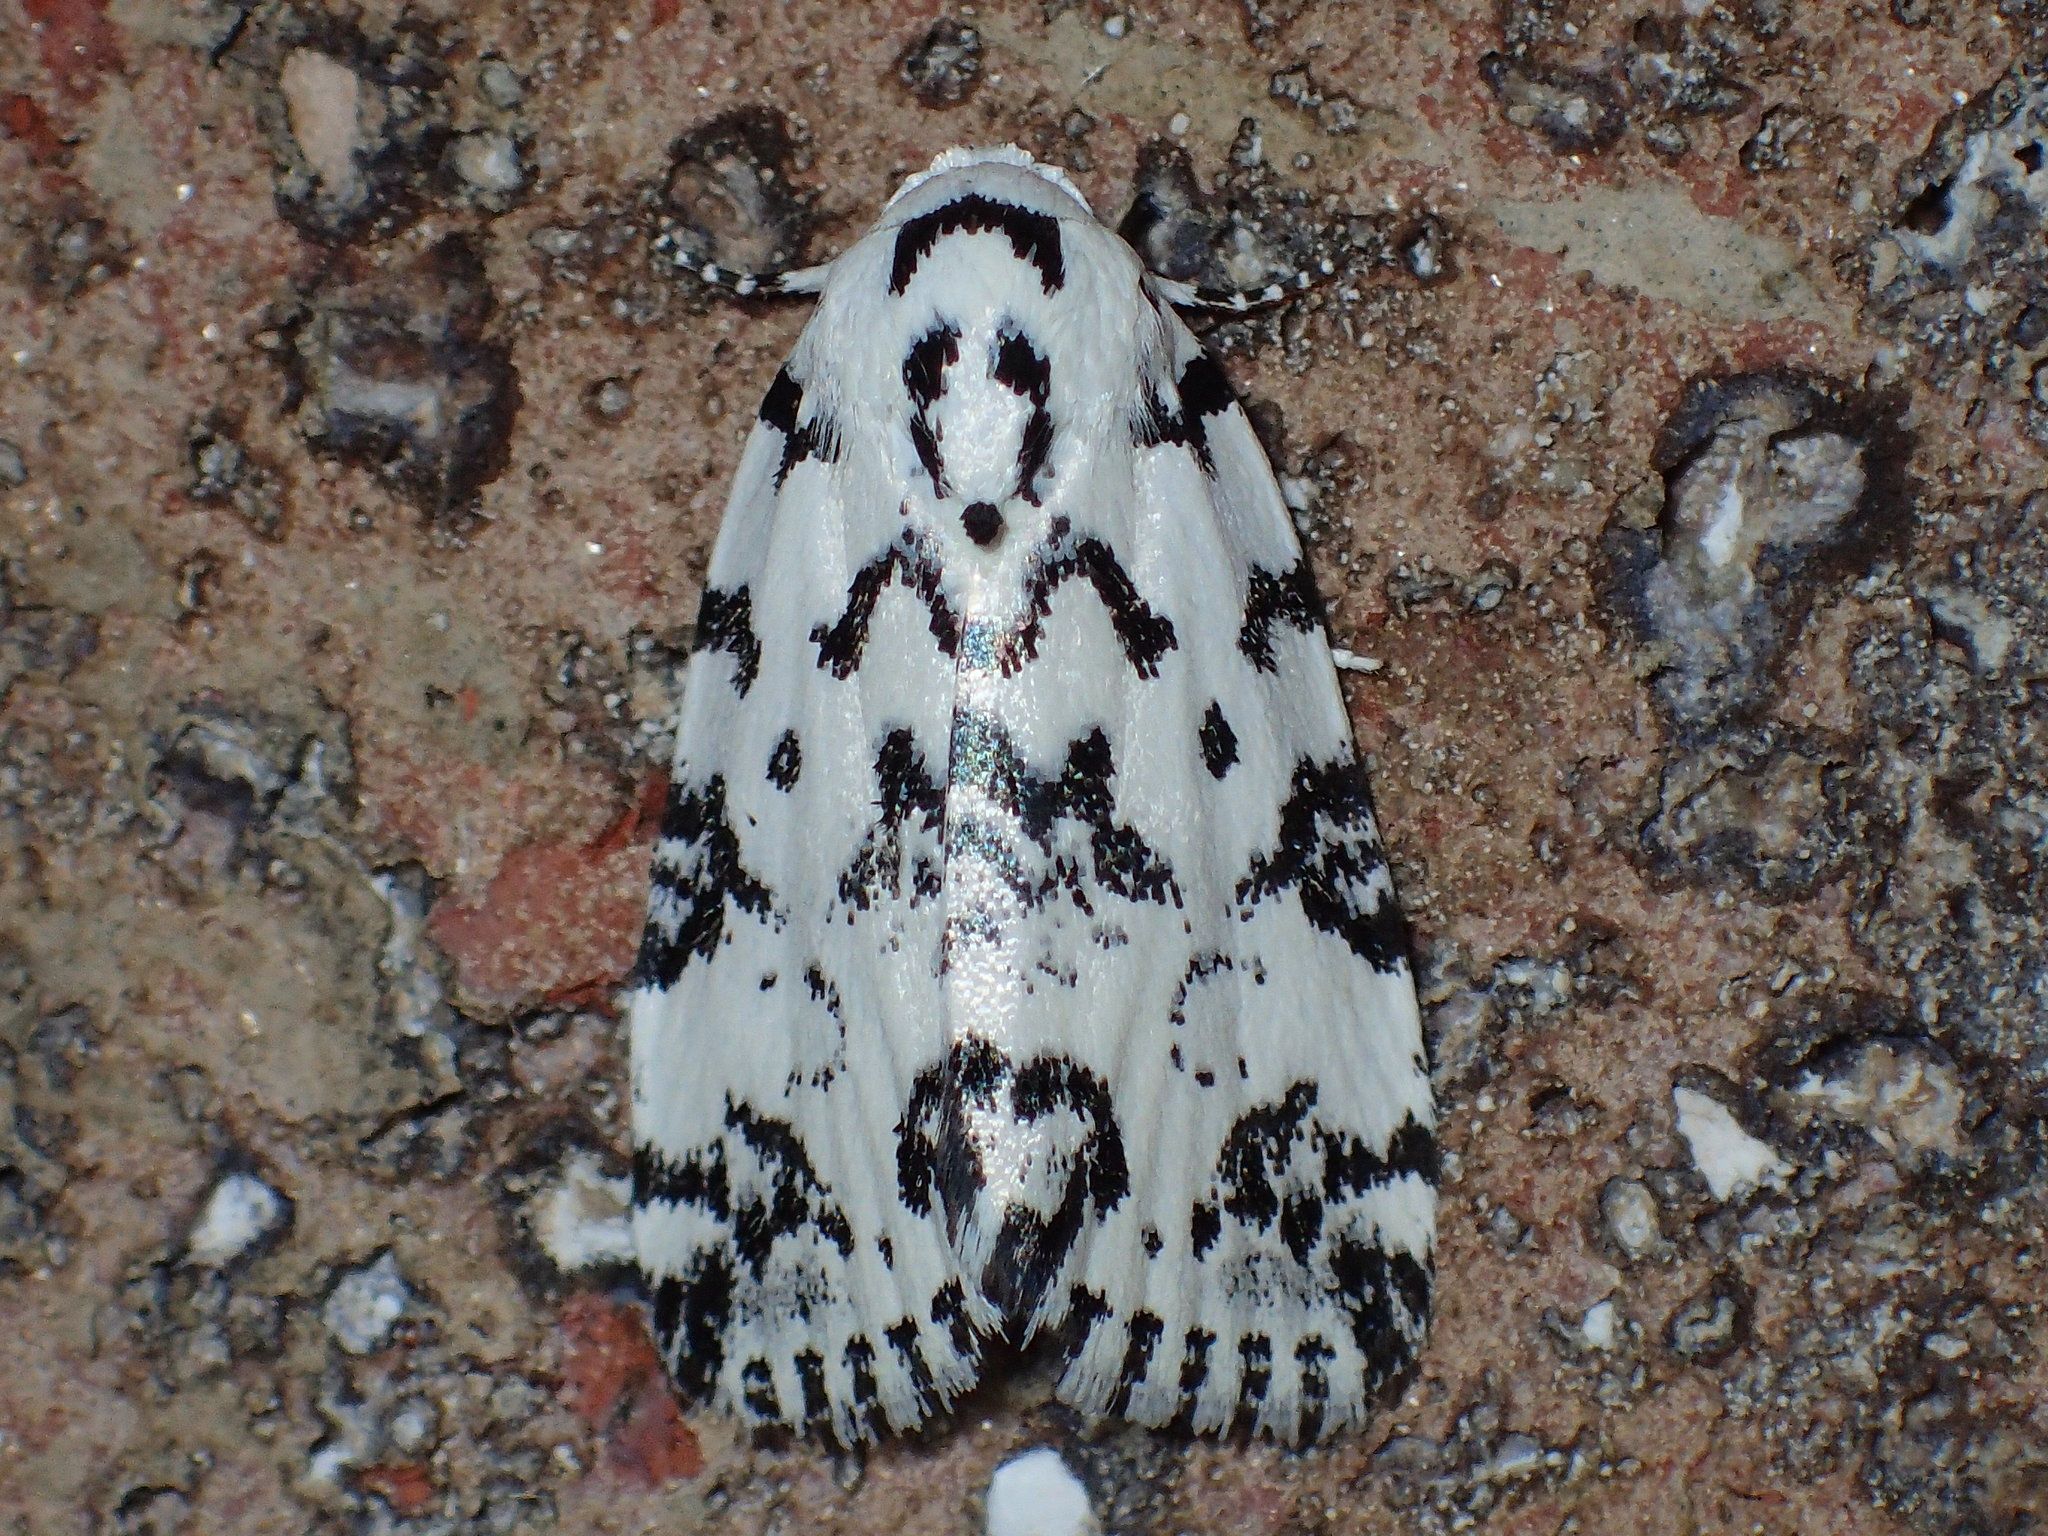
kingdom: Animalia
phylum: Arthropoda
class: Insecta
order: Lepidoptera
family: Noctuidae
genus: Polygrammate
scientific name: Polygrammate hebraeicum
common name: Hebrew moth
